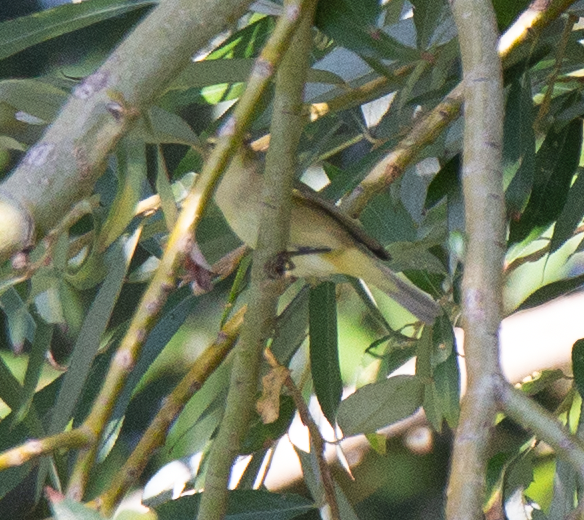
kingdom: Animalia
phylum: Chordata
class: Aves
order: Passeriformes
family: Phylloscopidae
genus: Phylloscopus
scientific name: Phylloscopus collybita
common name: Common chiffchaff
